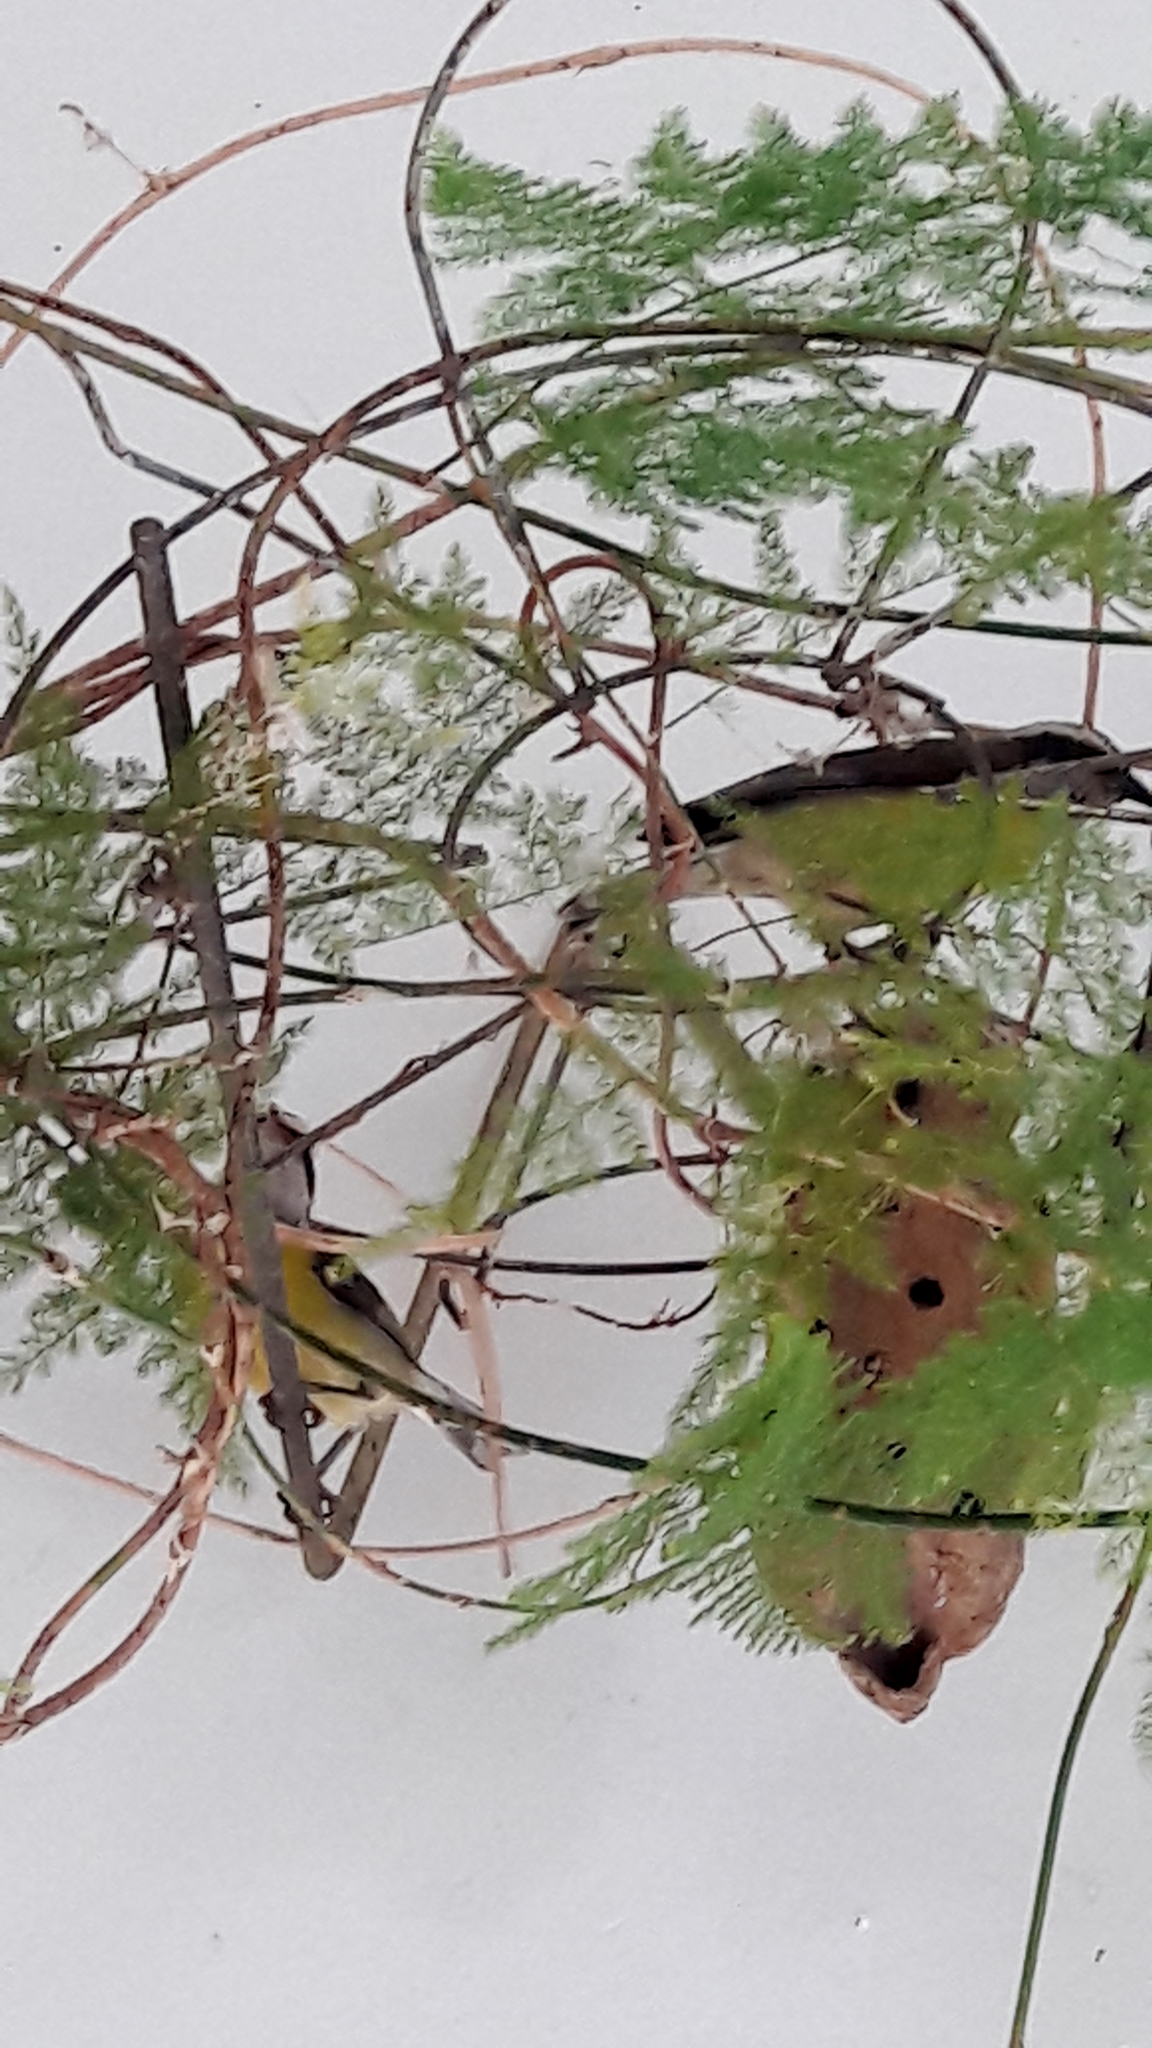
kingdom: Animalia
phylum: Chordata
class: Aves
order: Passeriformes
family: Thraupidae
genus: Coereba
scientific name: Coereba flaveola
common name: Bananaquit
